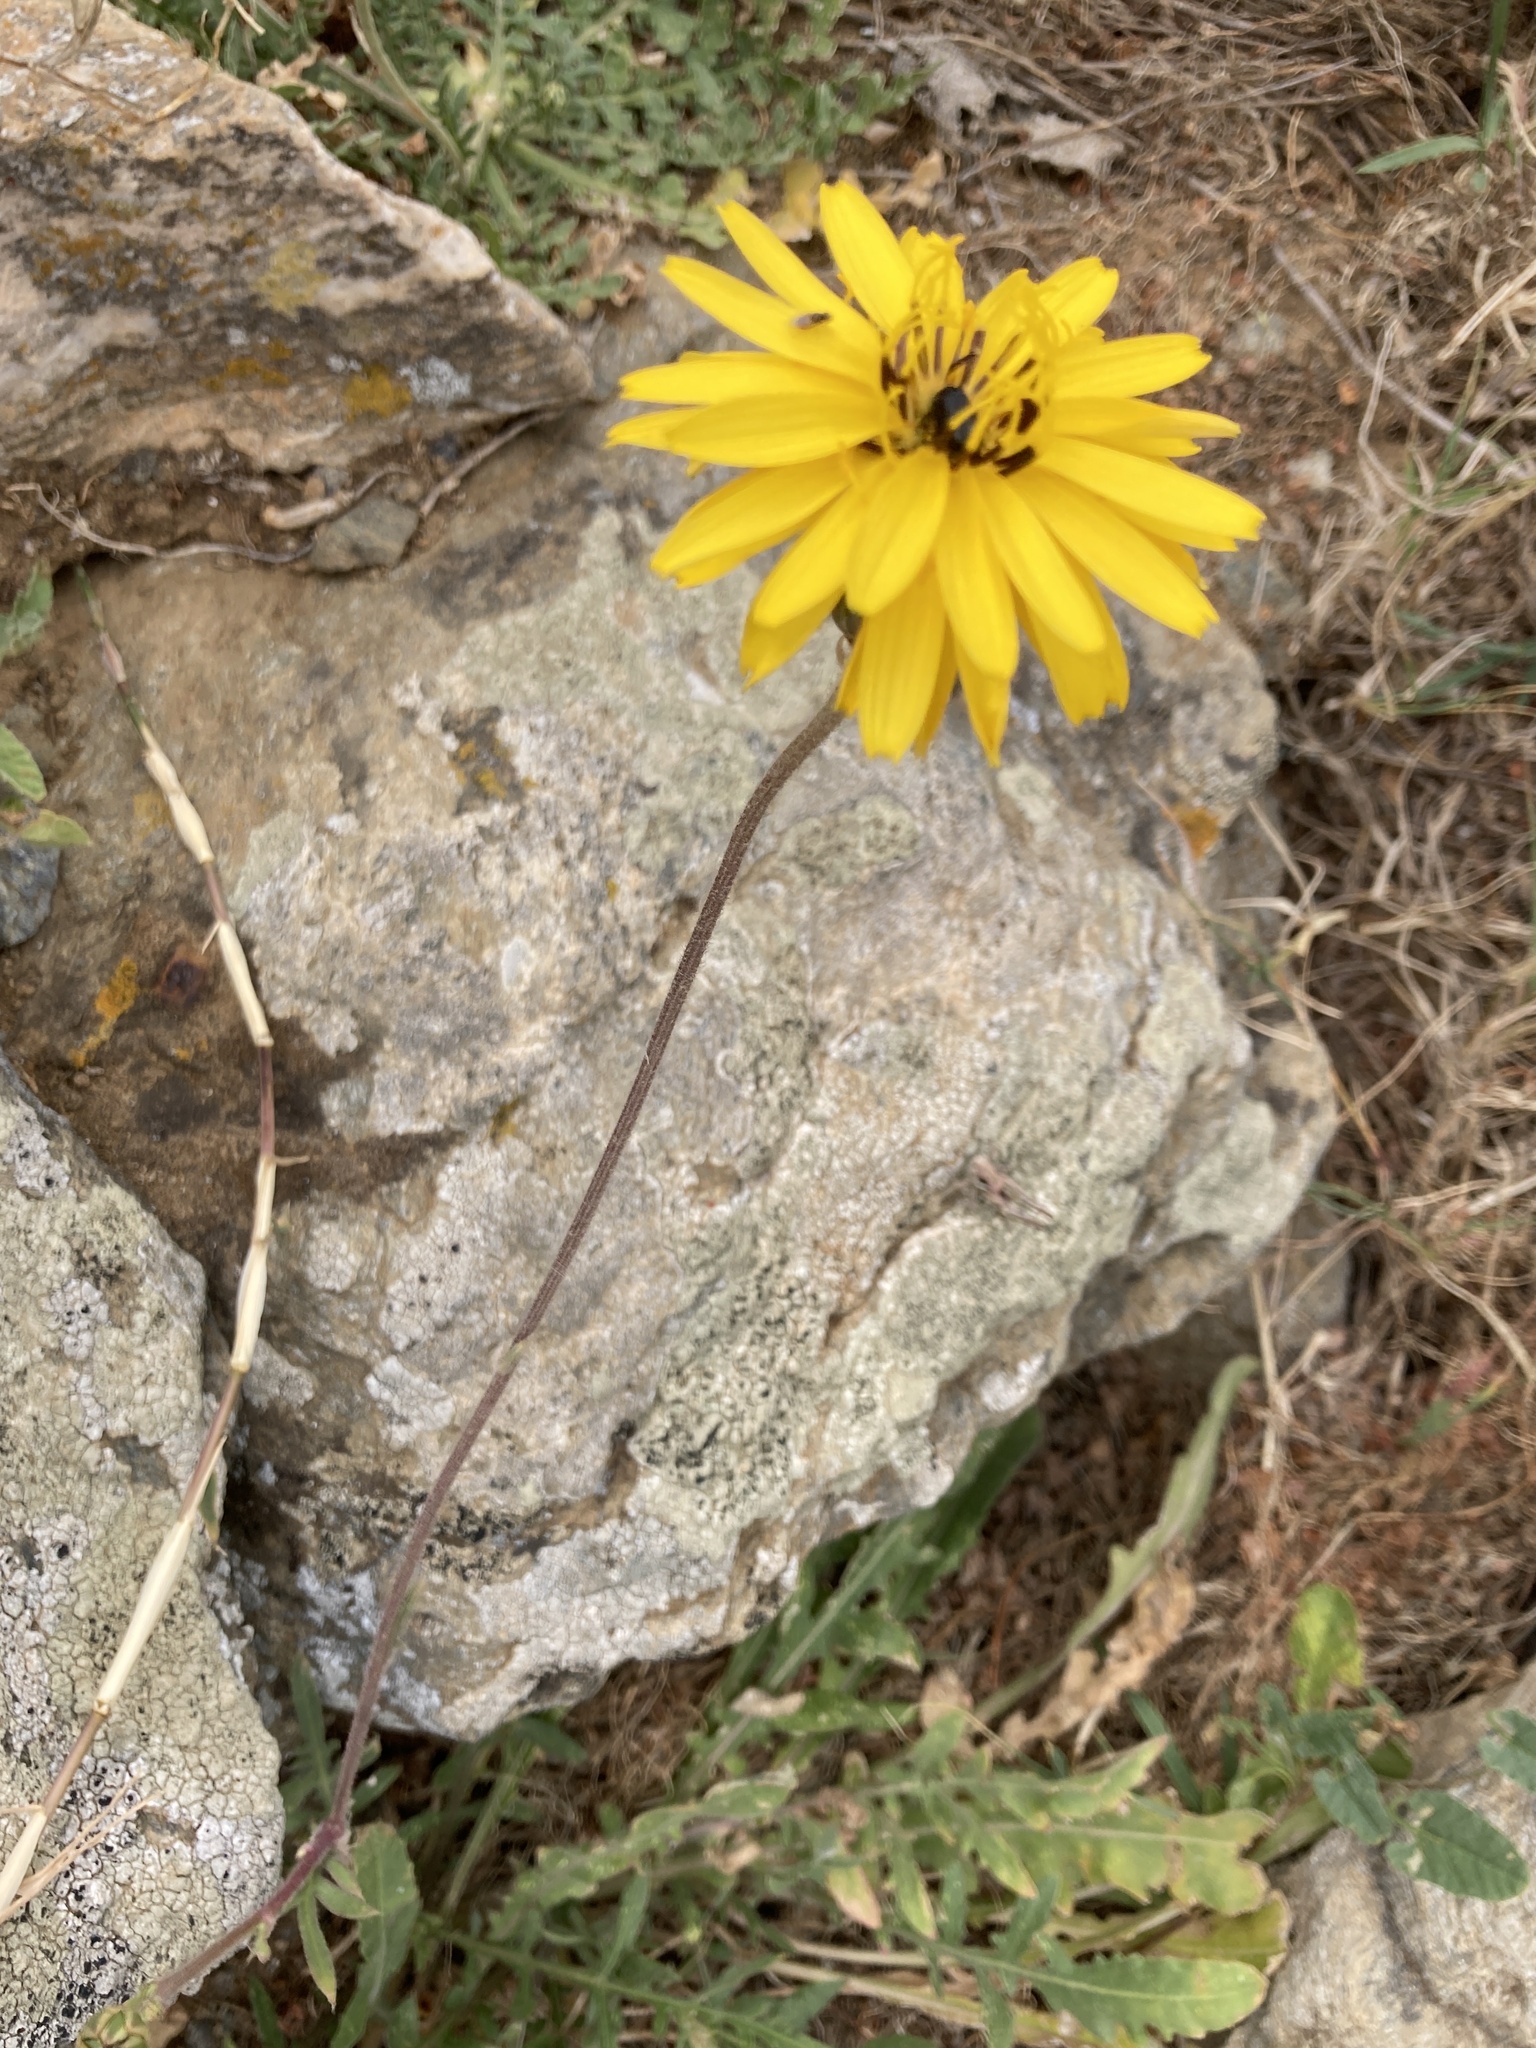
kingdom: Plantae
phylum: Tracheophyta
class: Magnoliopsida
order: Asterales
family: Asteraceae
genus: Reichardia
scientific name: Reichardia picroides
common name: Common brighteyes
